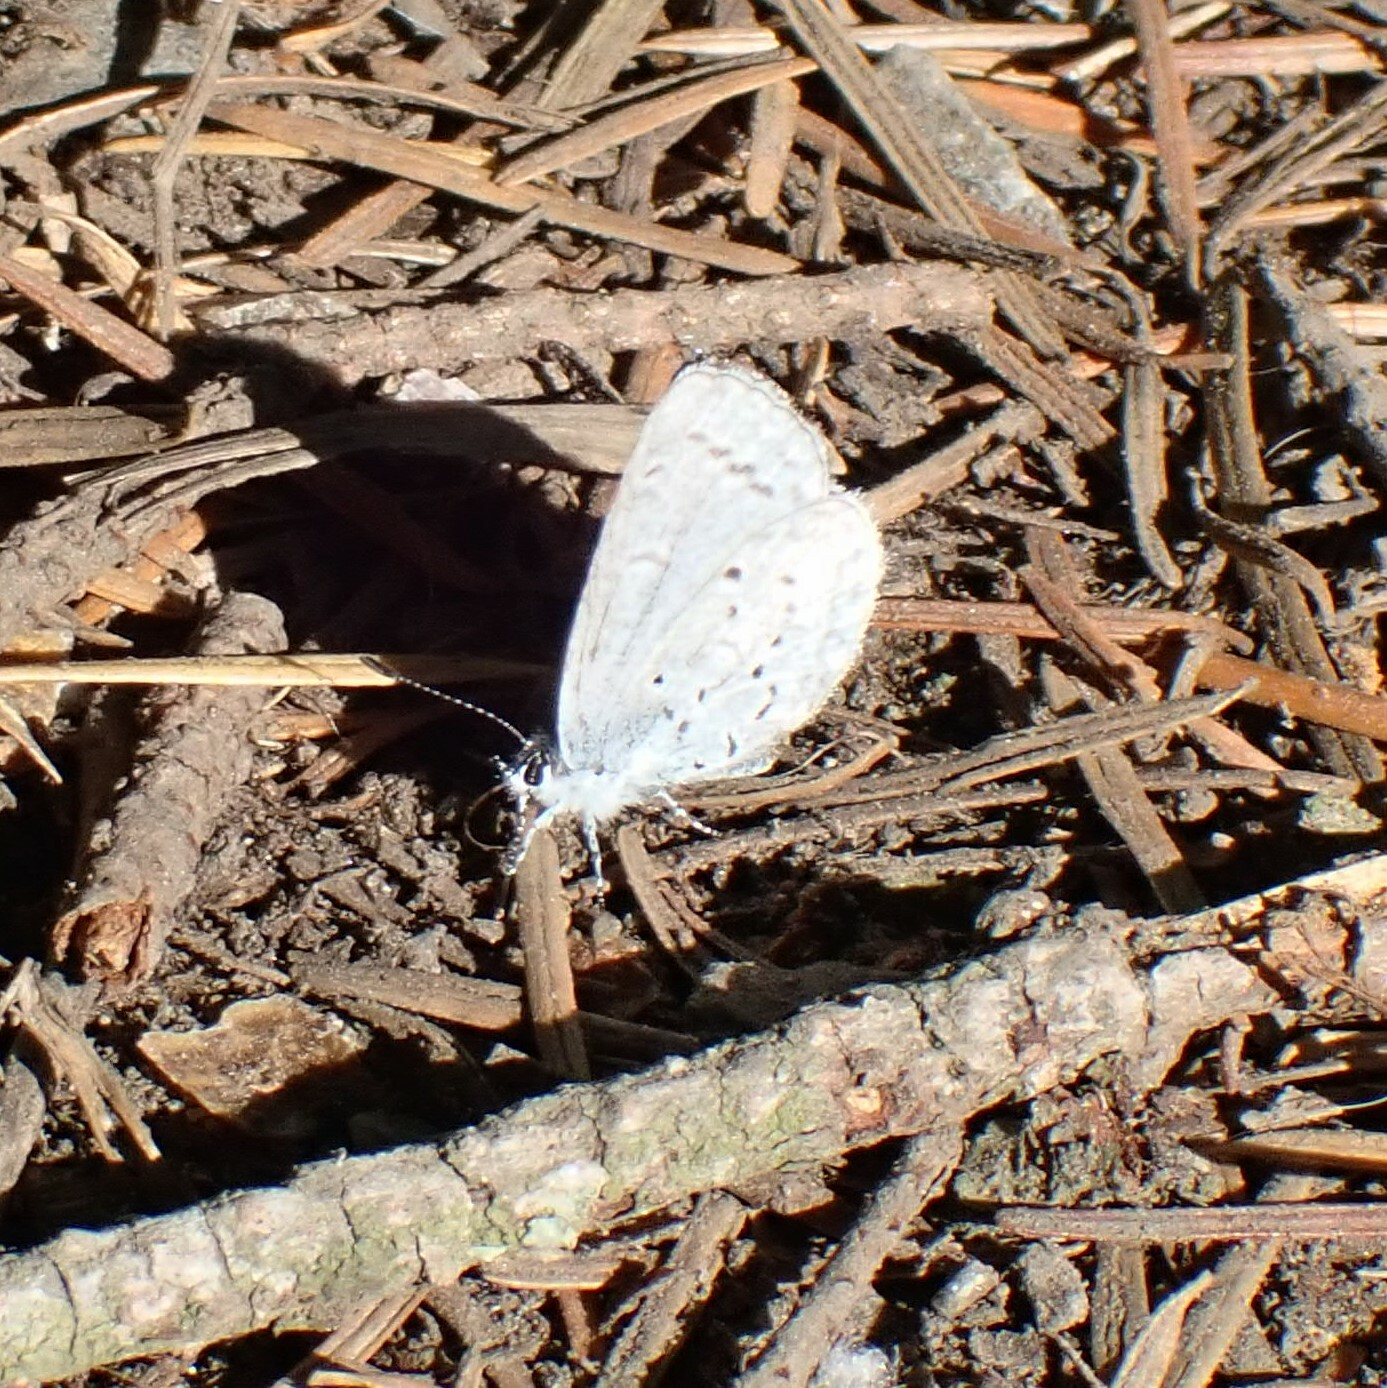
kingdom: Animalia
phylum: Arthropoda
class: Insecta
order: Lepidoptera
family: Lycaenidae
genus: Celastrina
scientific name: Celastrina ladon
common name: Spring azure
